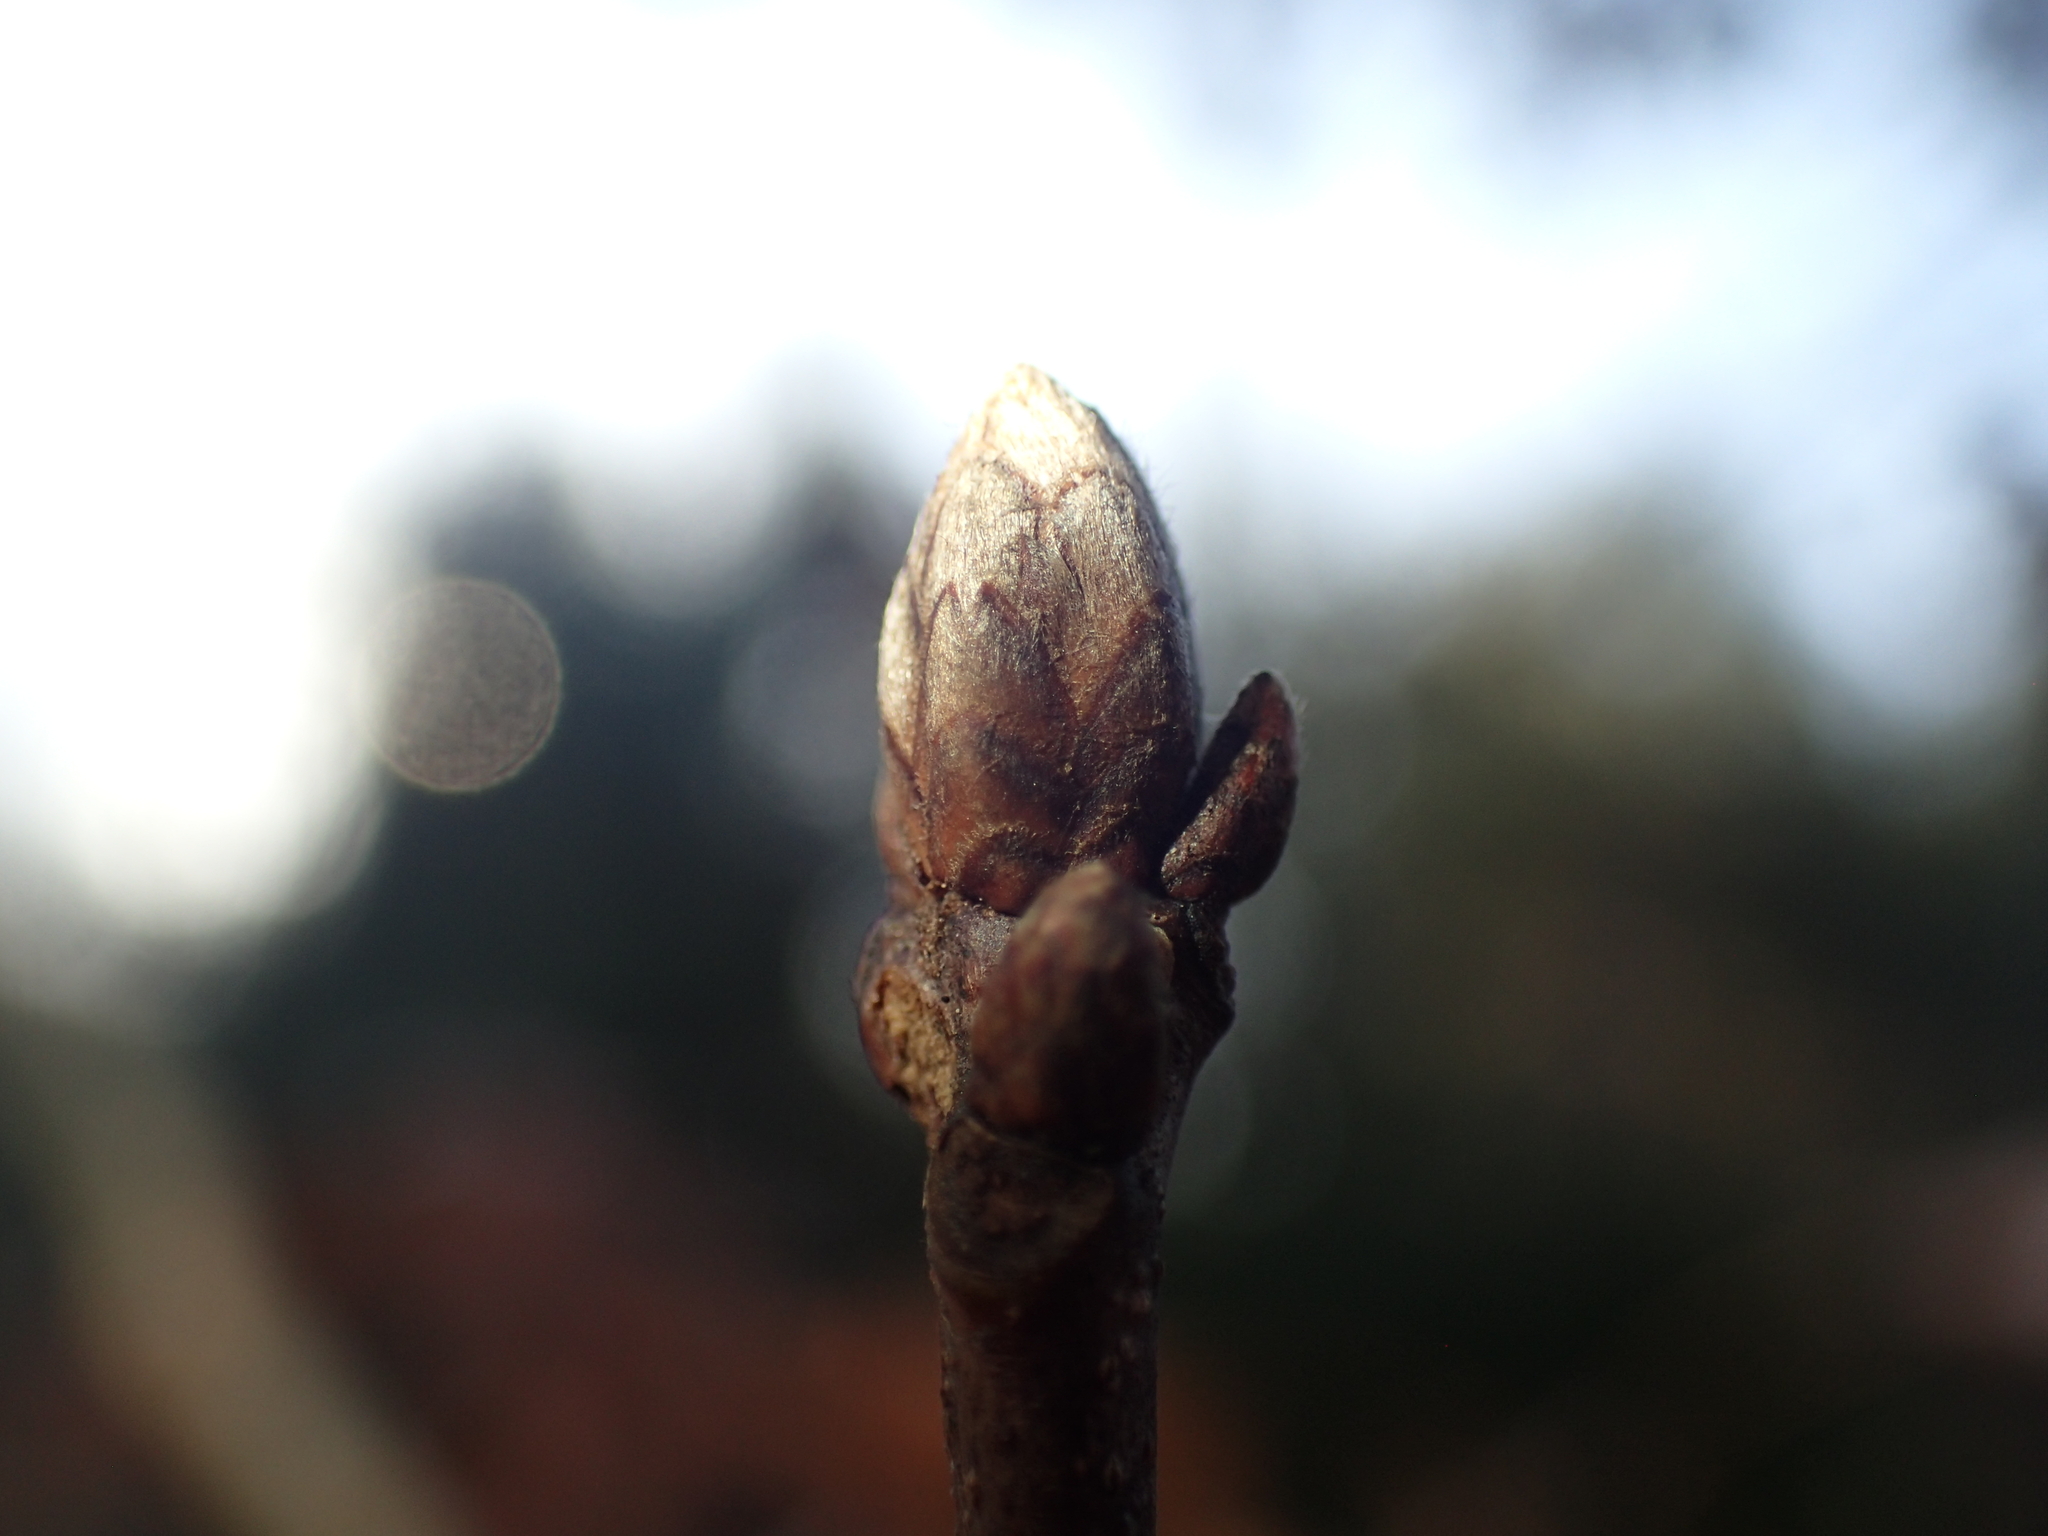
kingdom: Plantae
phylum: Tracheophyta
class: Magnoliopsida
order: Fagales
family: Fagaceae
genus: Quercus
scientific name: Quercus coccinea
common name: Scarlet oak
